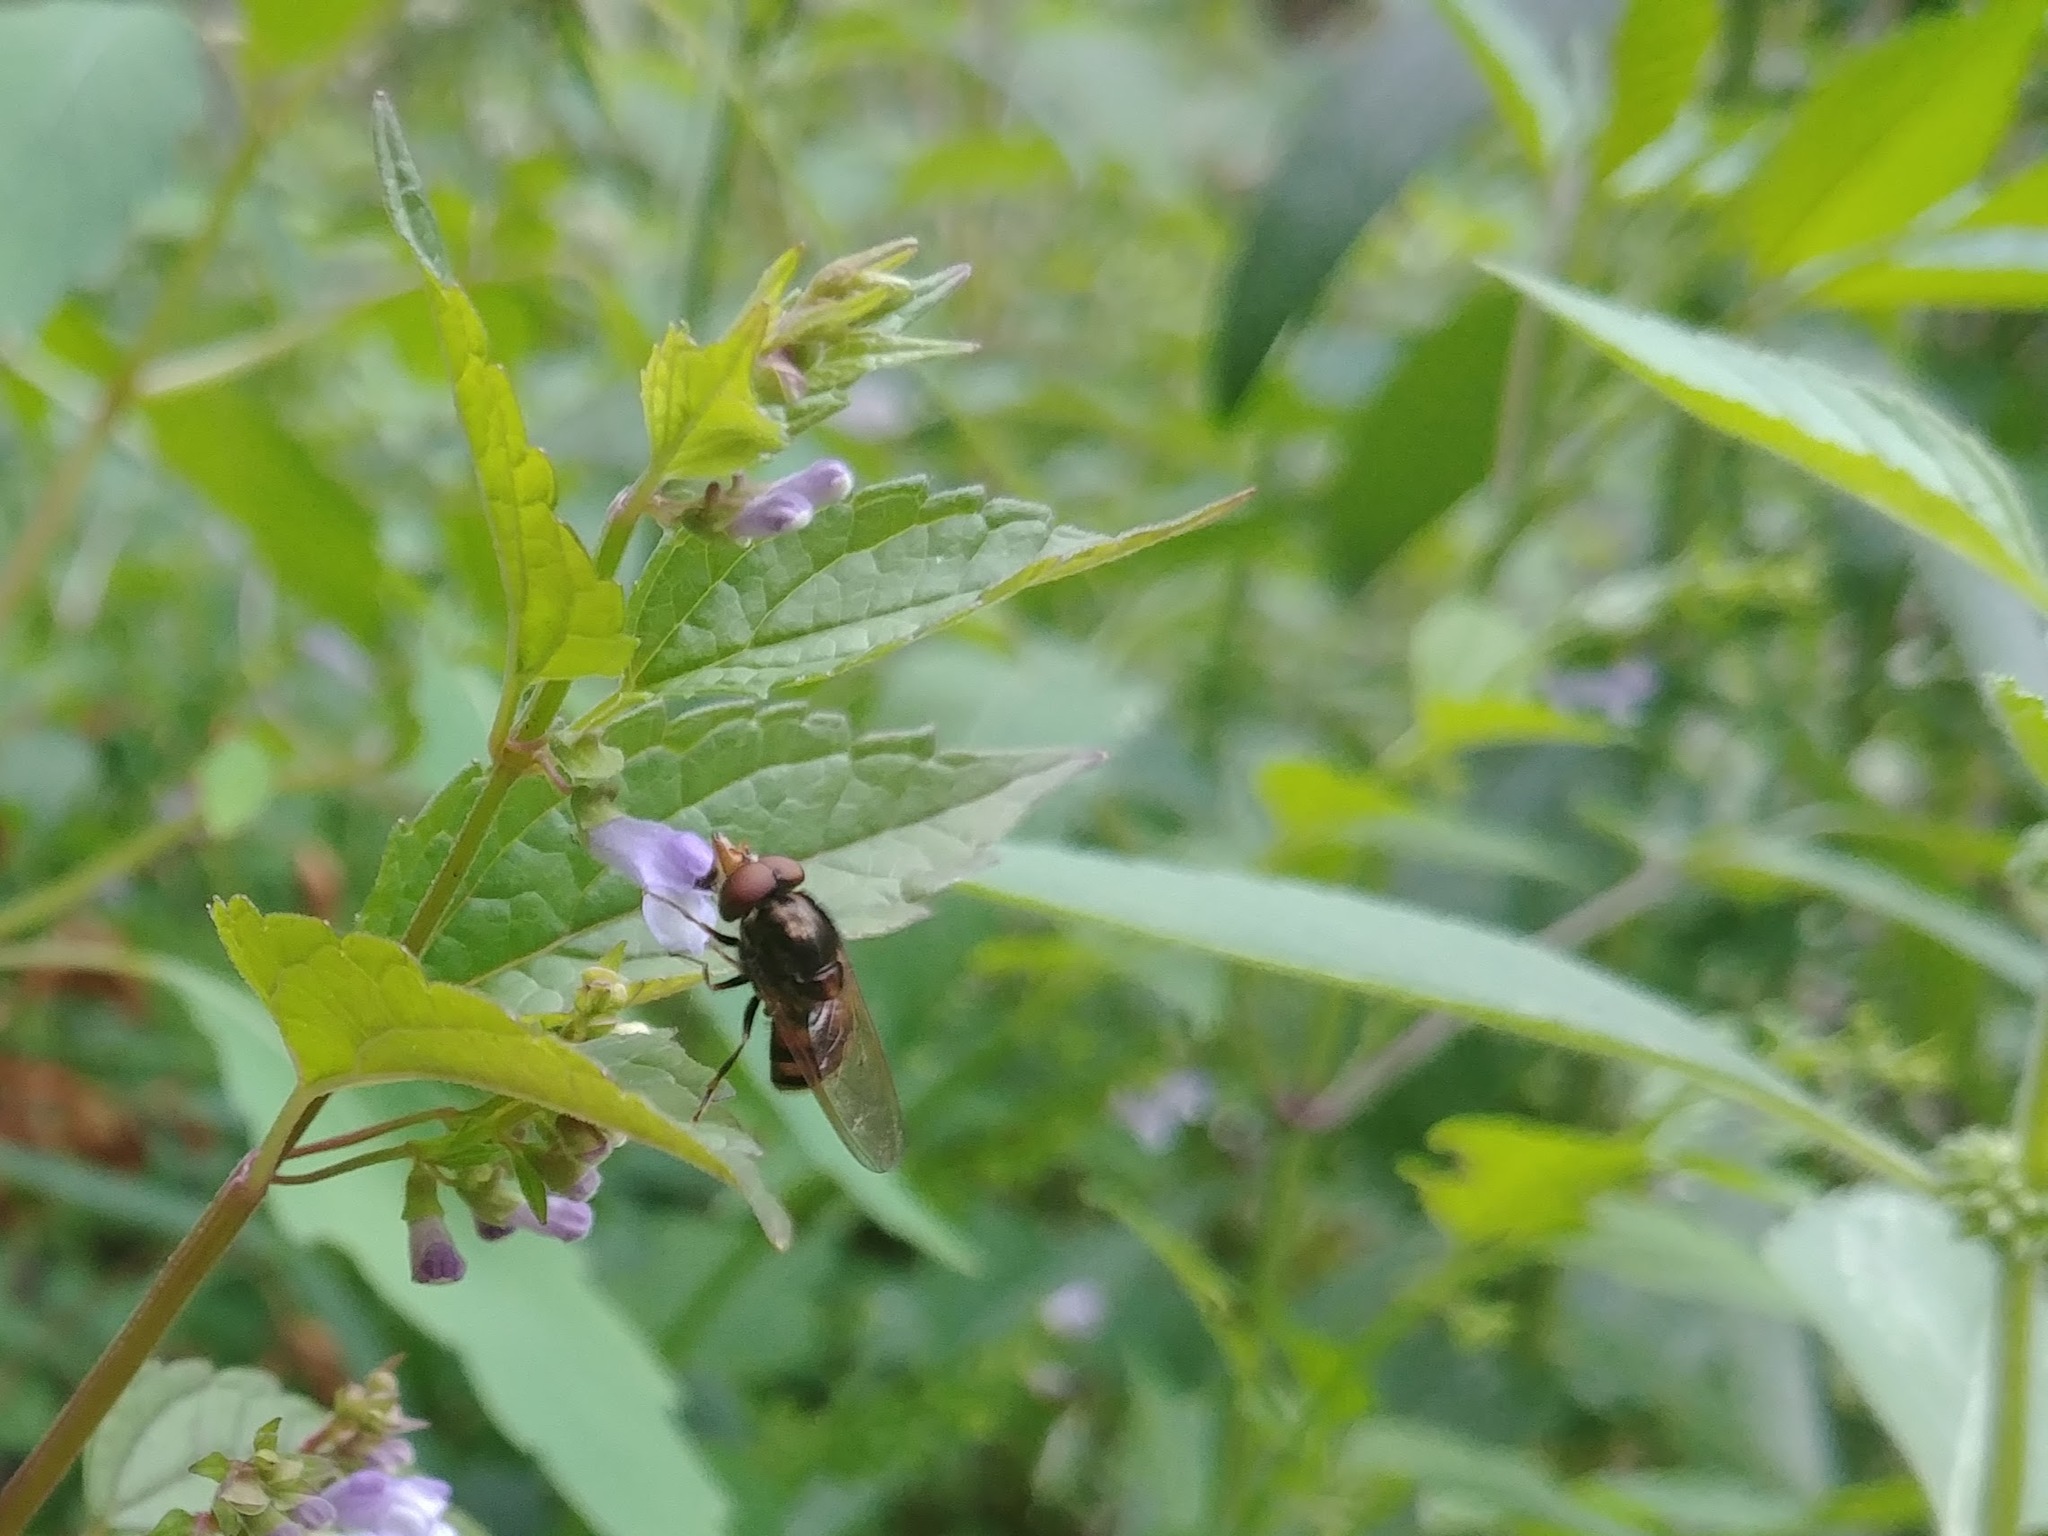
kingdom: Animalia
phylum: Arthropoda
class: Insecta
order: Diptera
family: Syrphidae
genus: Rhingia
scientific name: Rhingia nasica
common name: American snout fly
